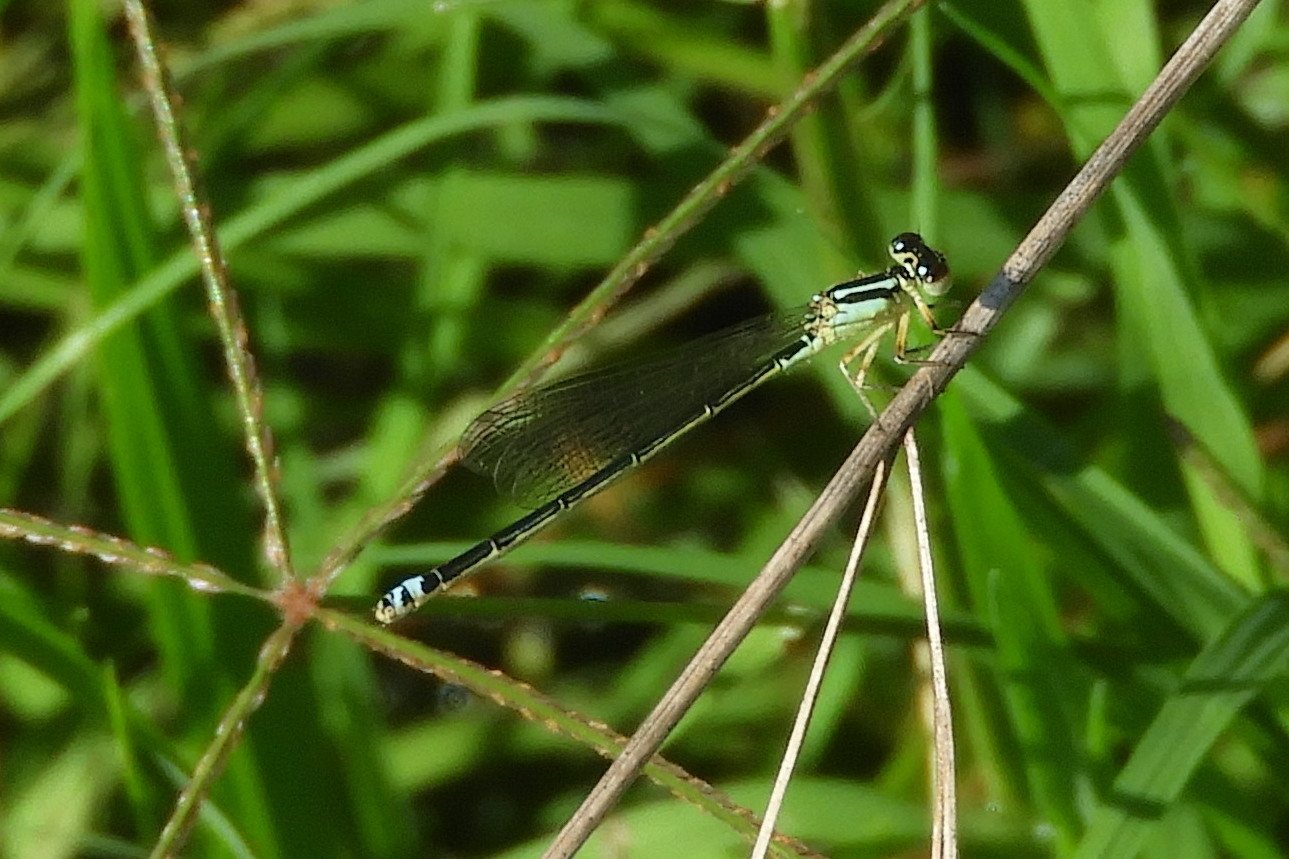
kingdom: Animalia
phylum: Arthropoda
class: Insecta
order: Odonata
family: Coenagrionidae
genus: Ischnura
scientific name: Ischnura verticalis
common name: Eastern forktail
